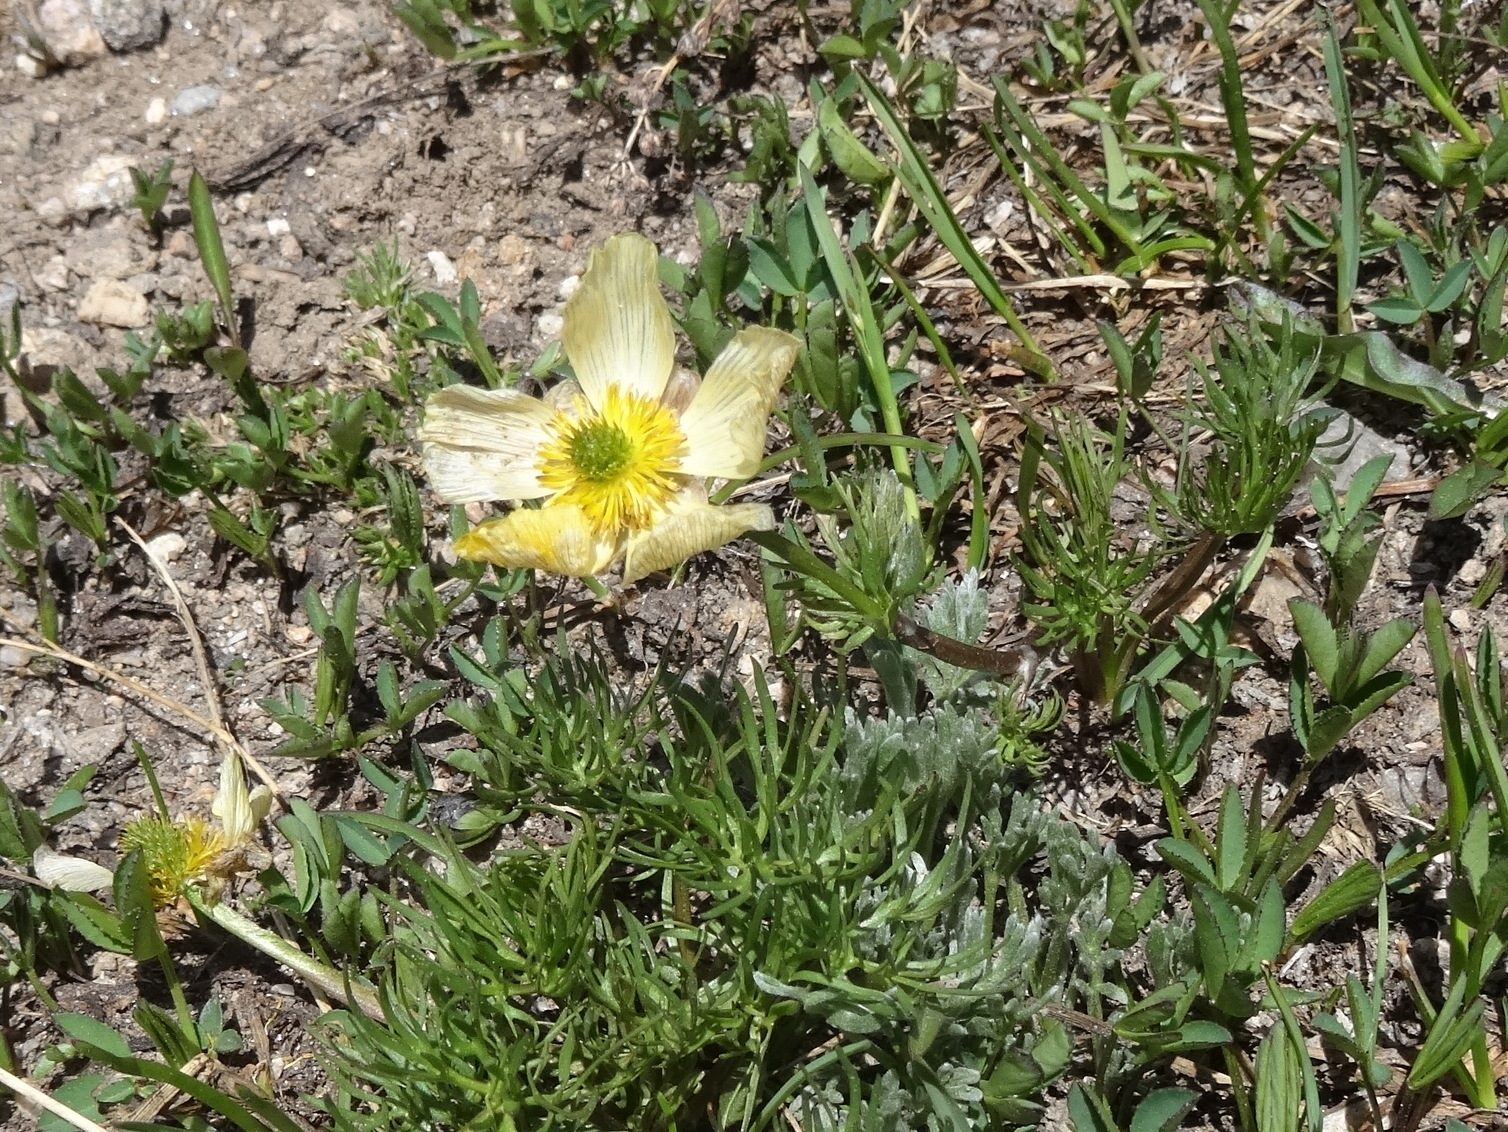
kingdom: Plantae
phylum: Tracheophyta
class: Magnoliopsida
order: Ranunculales
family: Ranunculaceae
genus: Ranunculus
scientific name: Ranunculus adoneus
